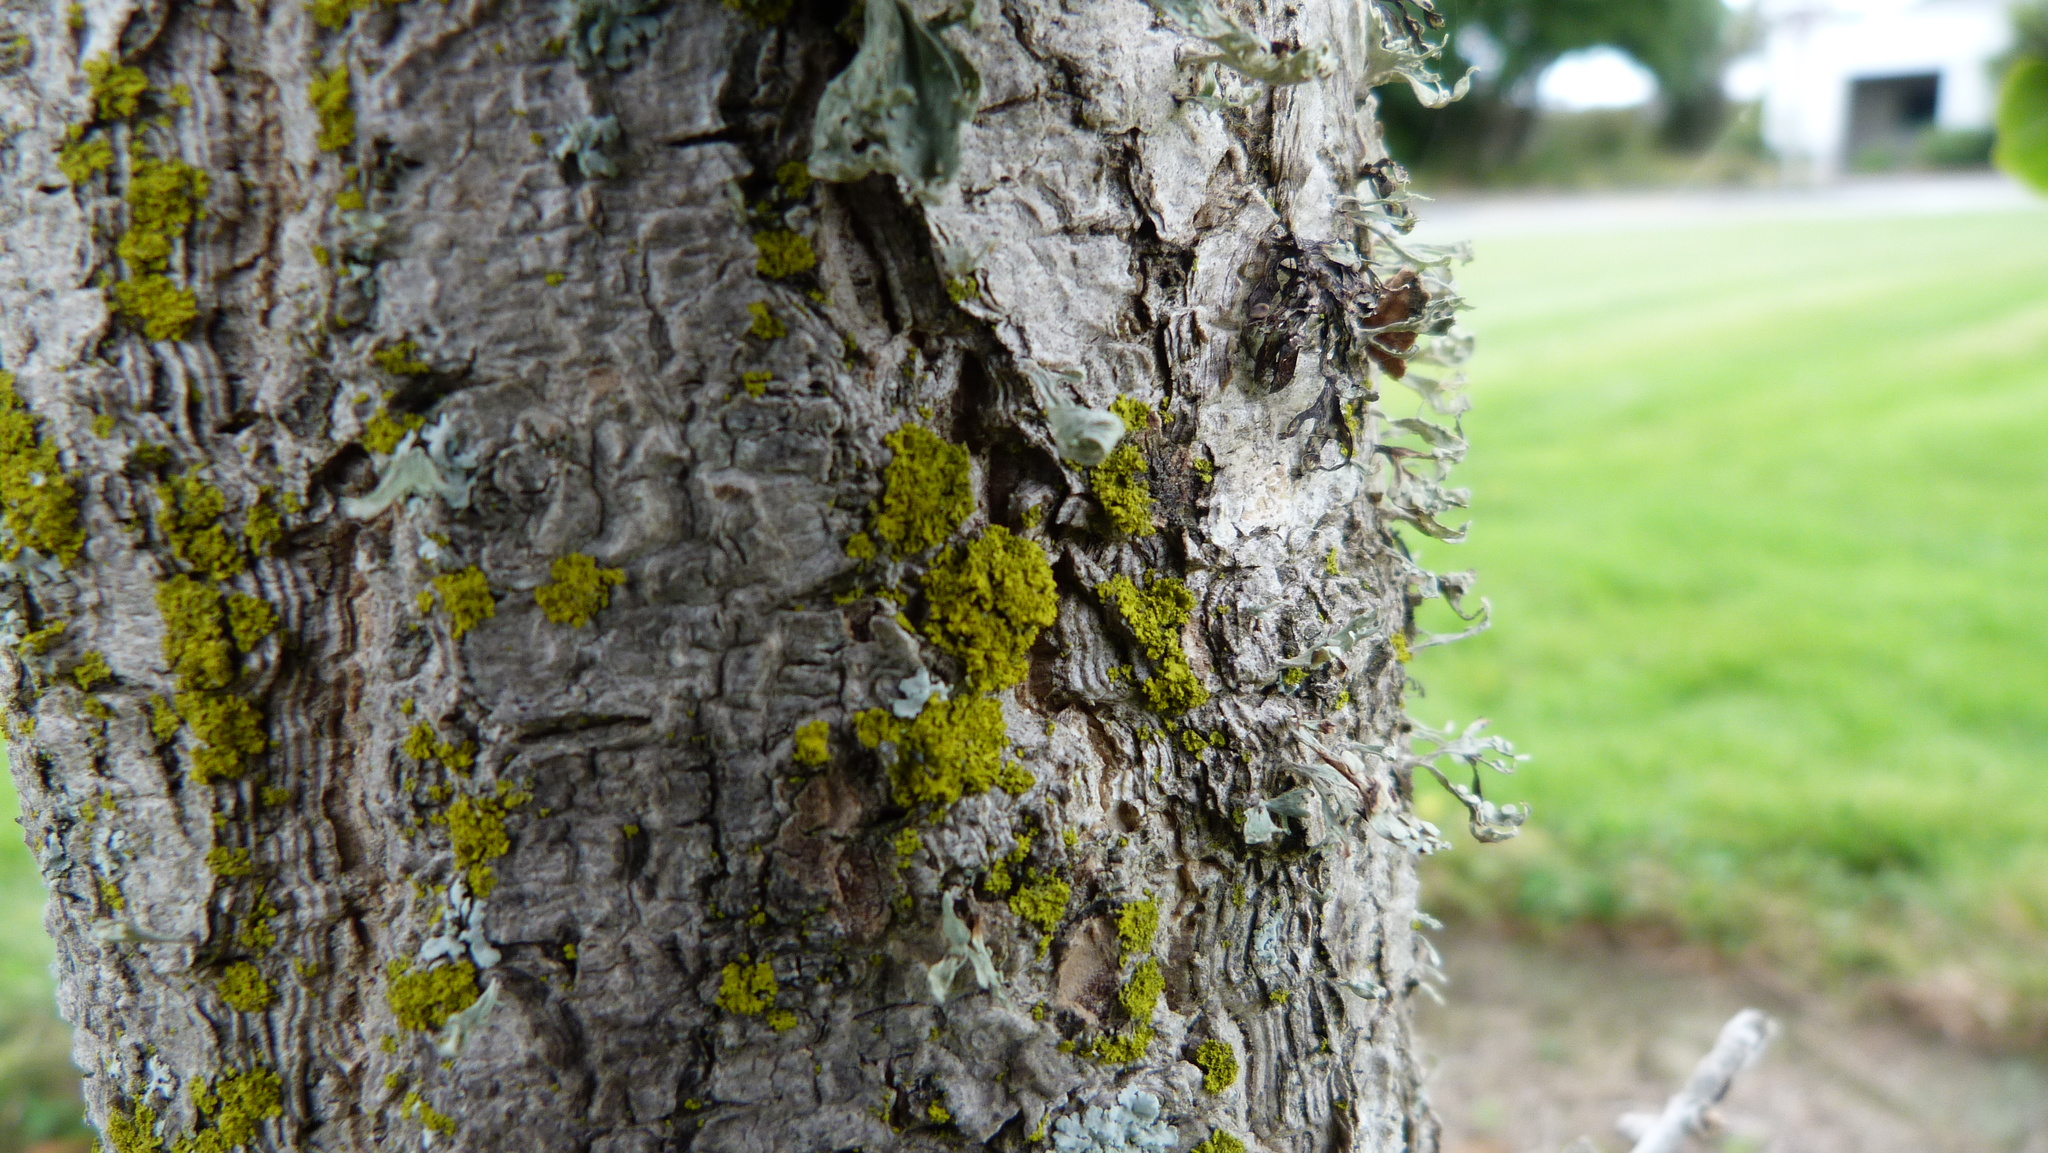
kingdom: Fungi
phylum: Ascomycota
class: Candelariomycetes
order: Candelariales
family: Candelariaceae
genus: Candelaria
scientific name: Candelaria concolor
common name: Candleflame lichen
